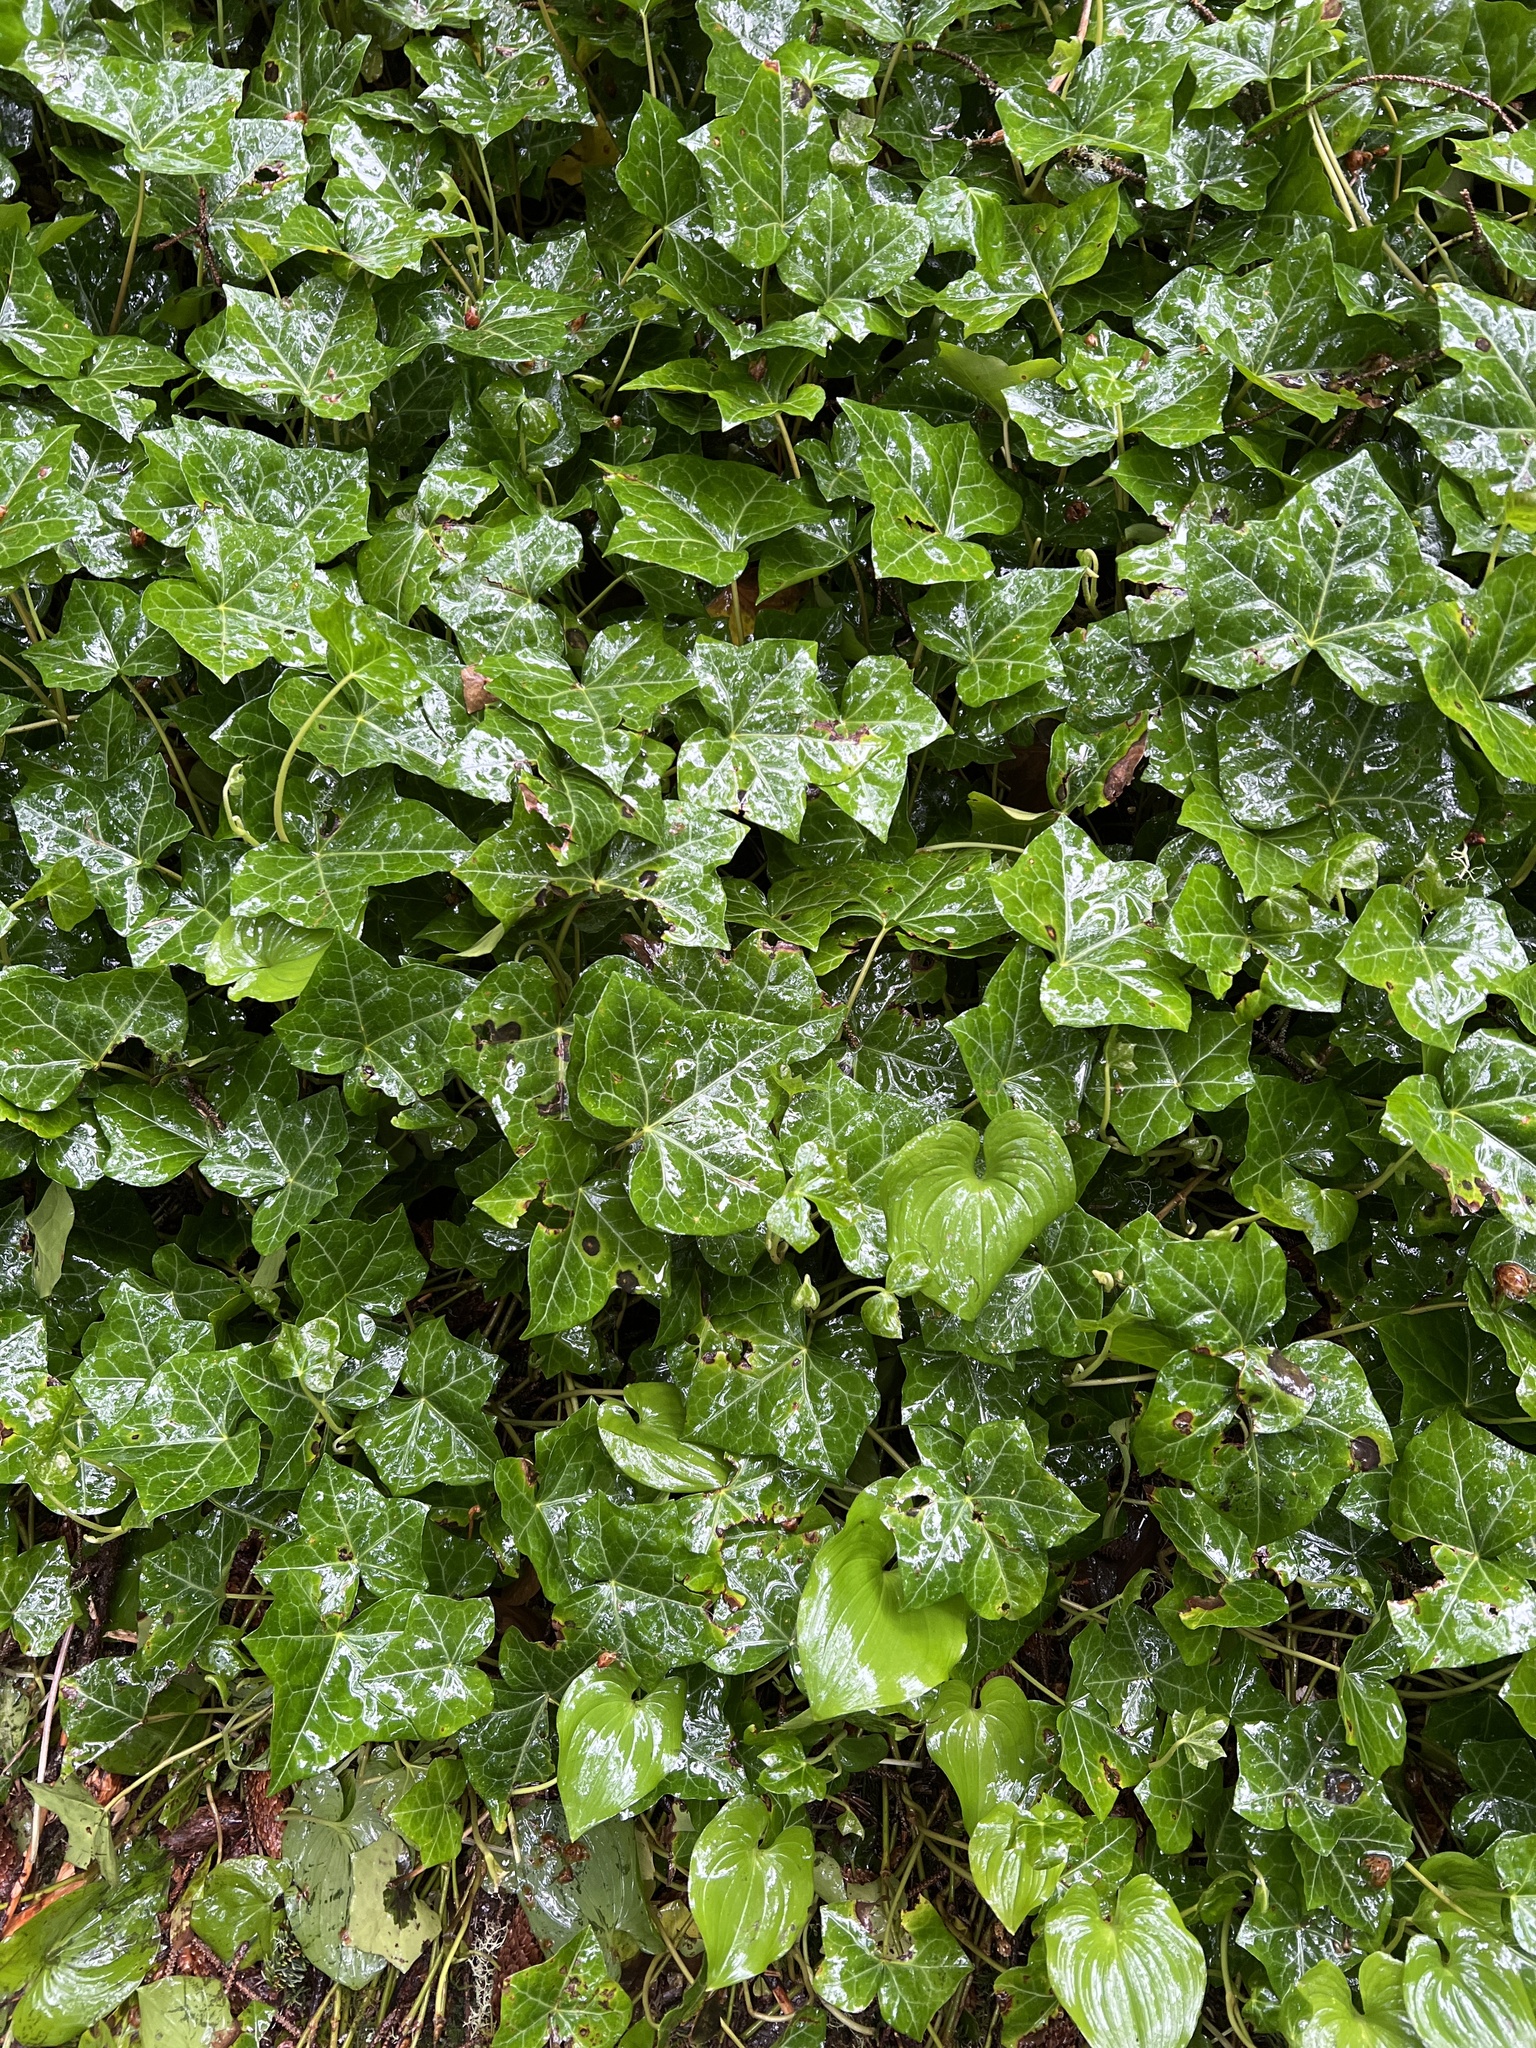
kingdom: Plantae
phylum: Tracheophyta
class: Magnoliopsida
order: Apiales
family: Araliaceae
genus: Hedera
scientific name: Hedera helix
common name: Ivy
